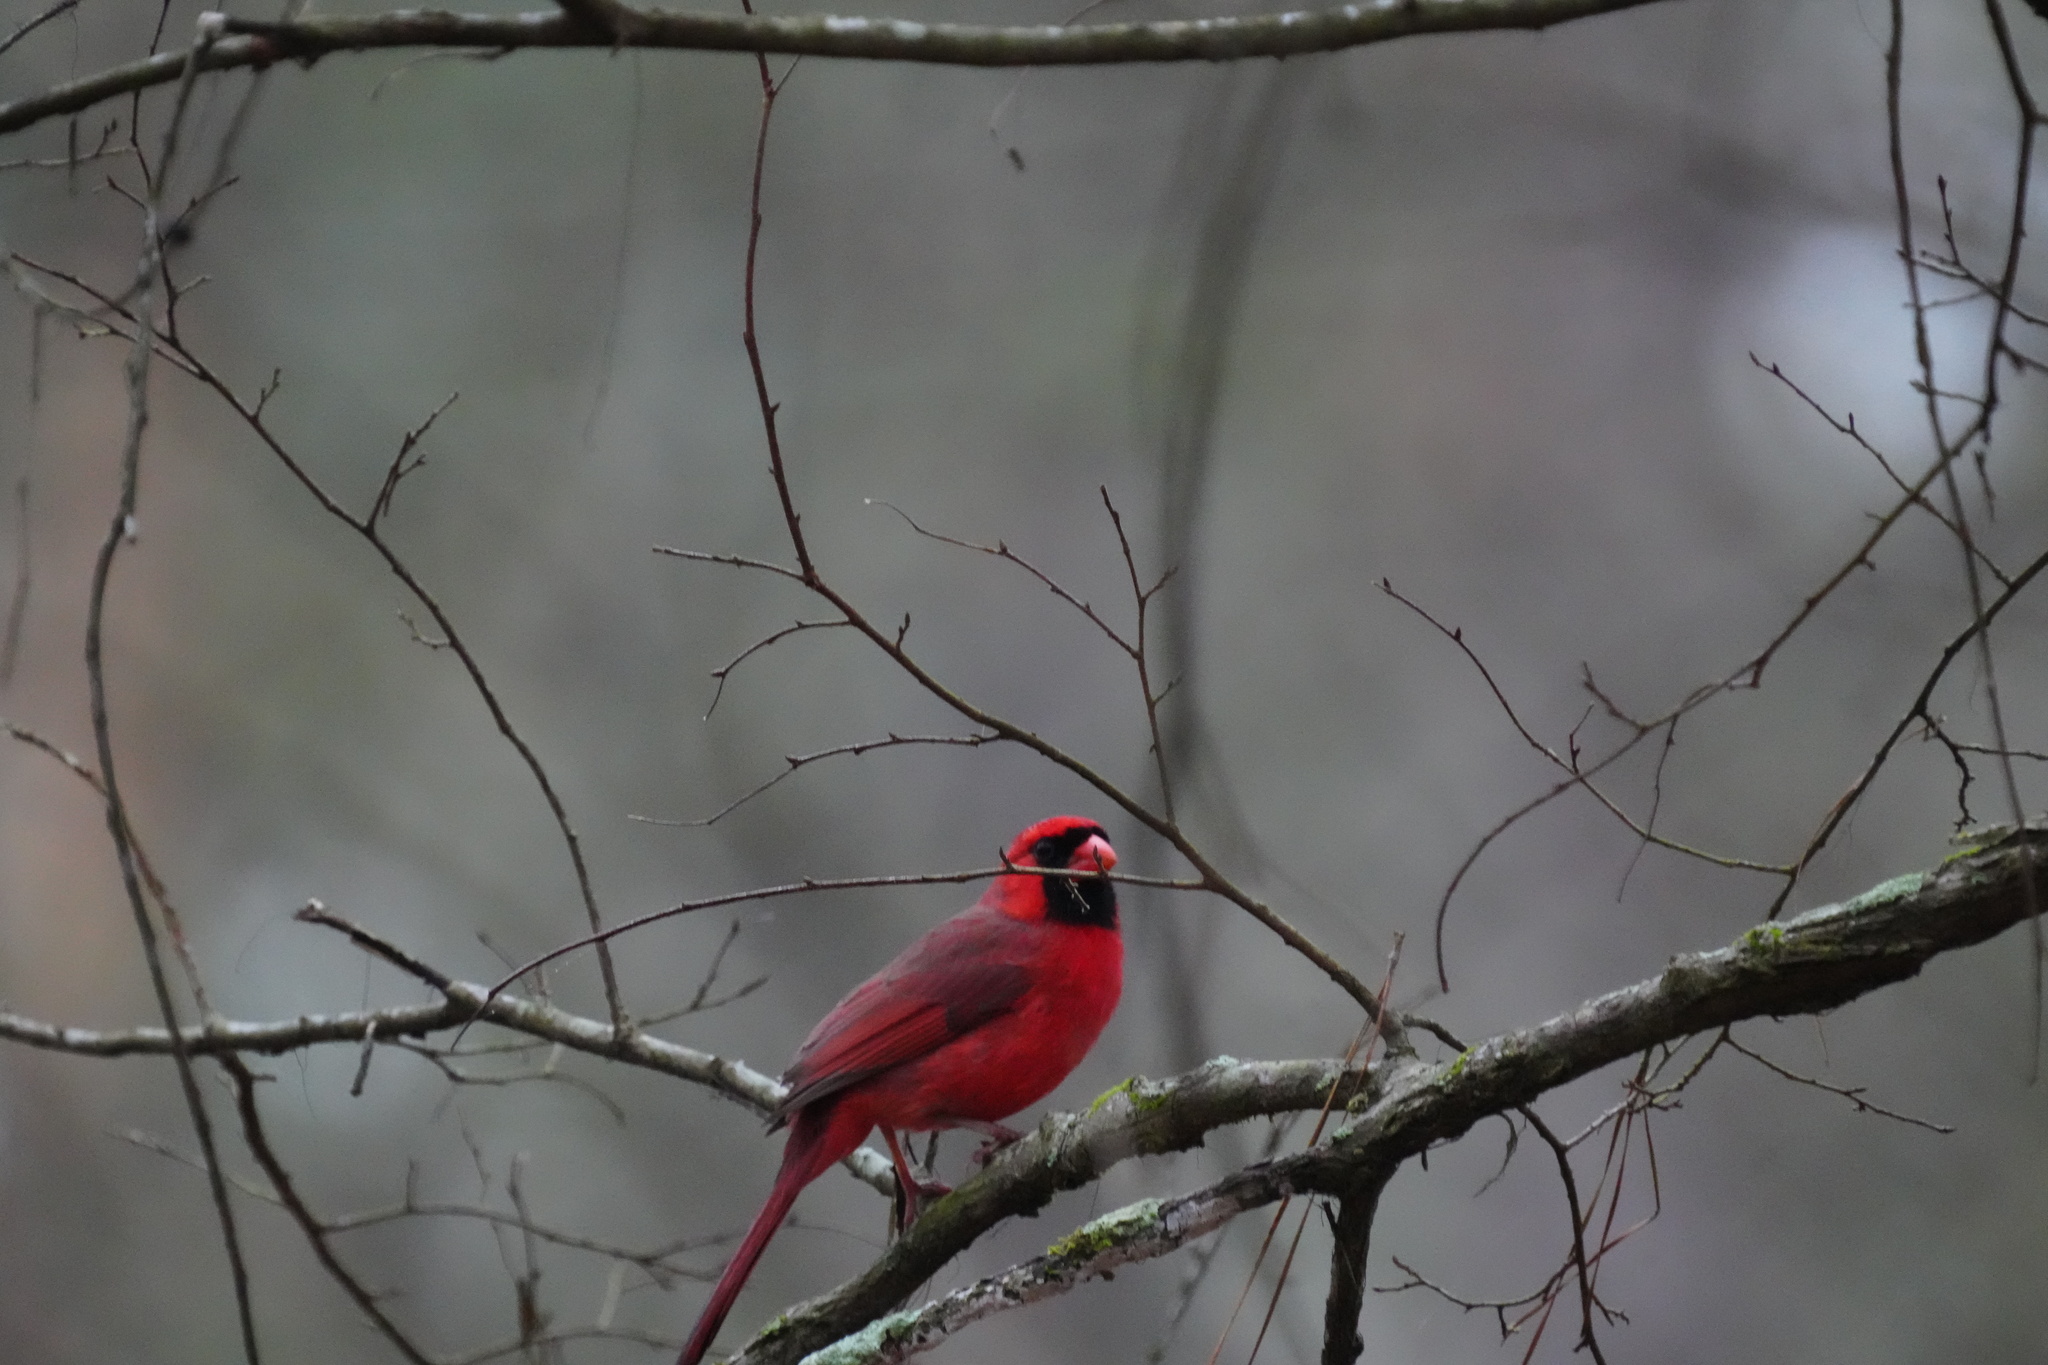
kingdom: Animalia
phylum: Chordata
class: Aves
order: Passeriformes
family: Cardinalidae
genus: Cardinalis
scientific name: Cardinalis cardinalis
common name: Northern cardinal
